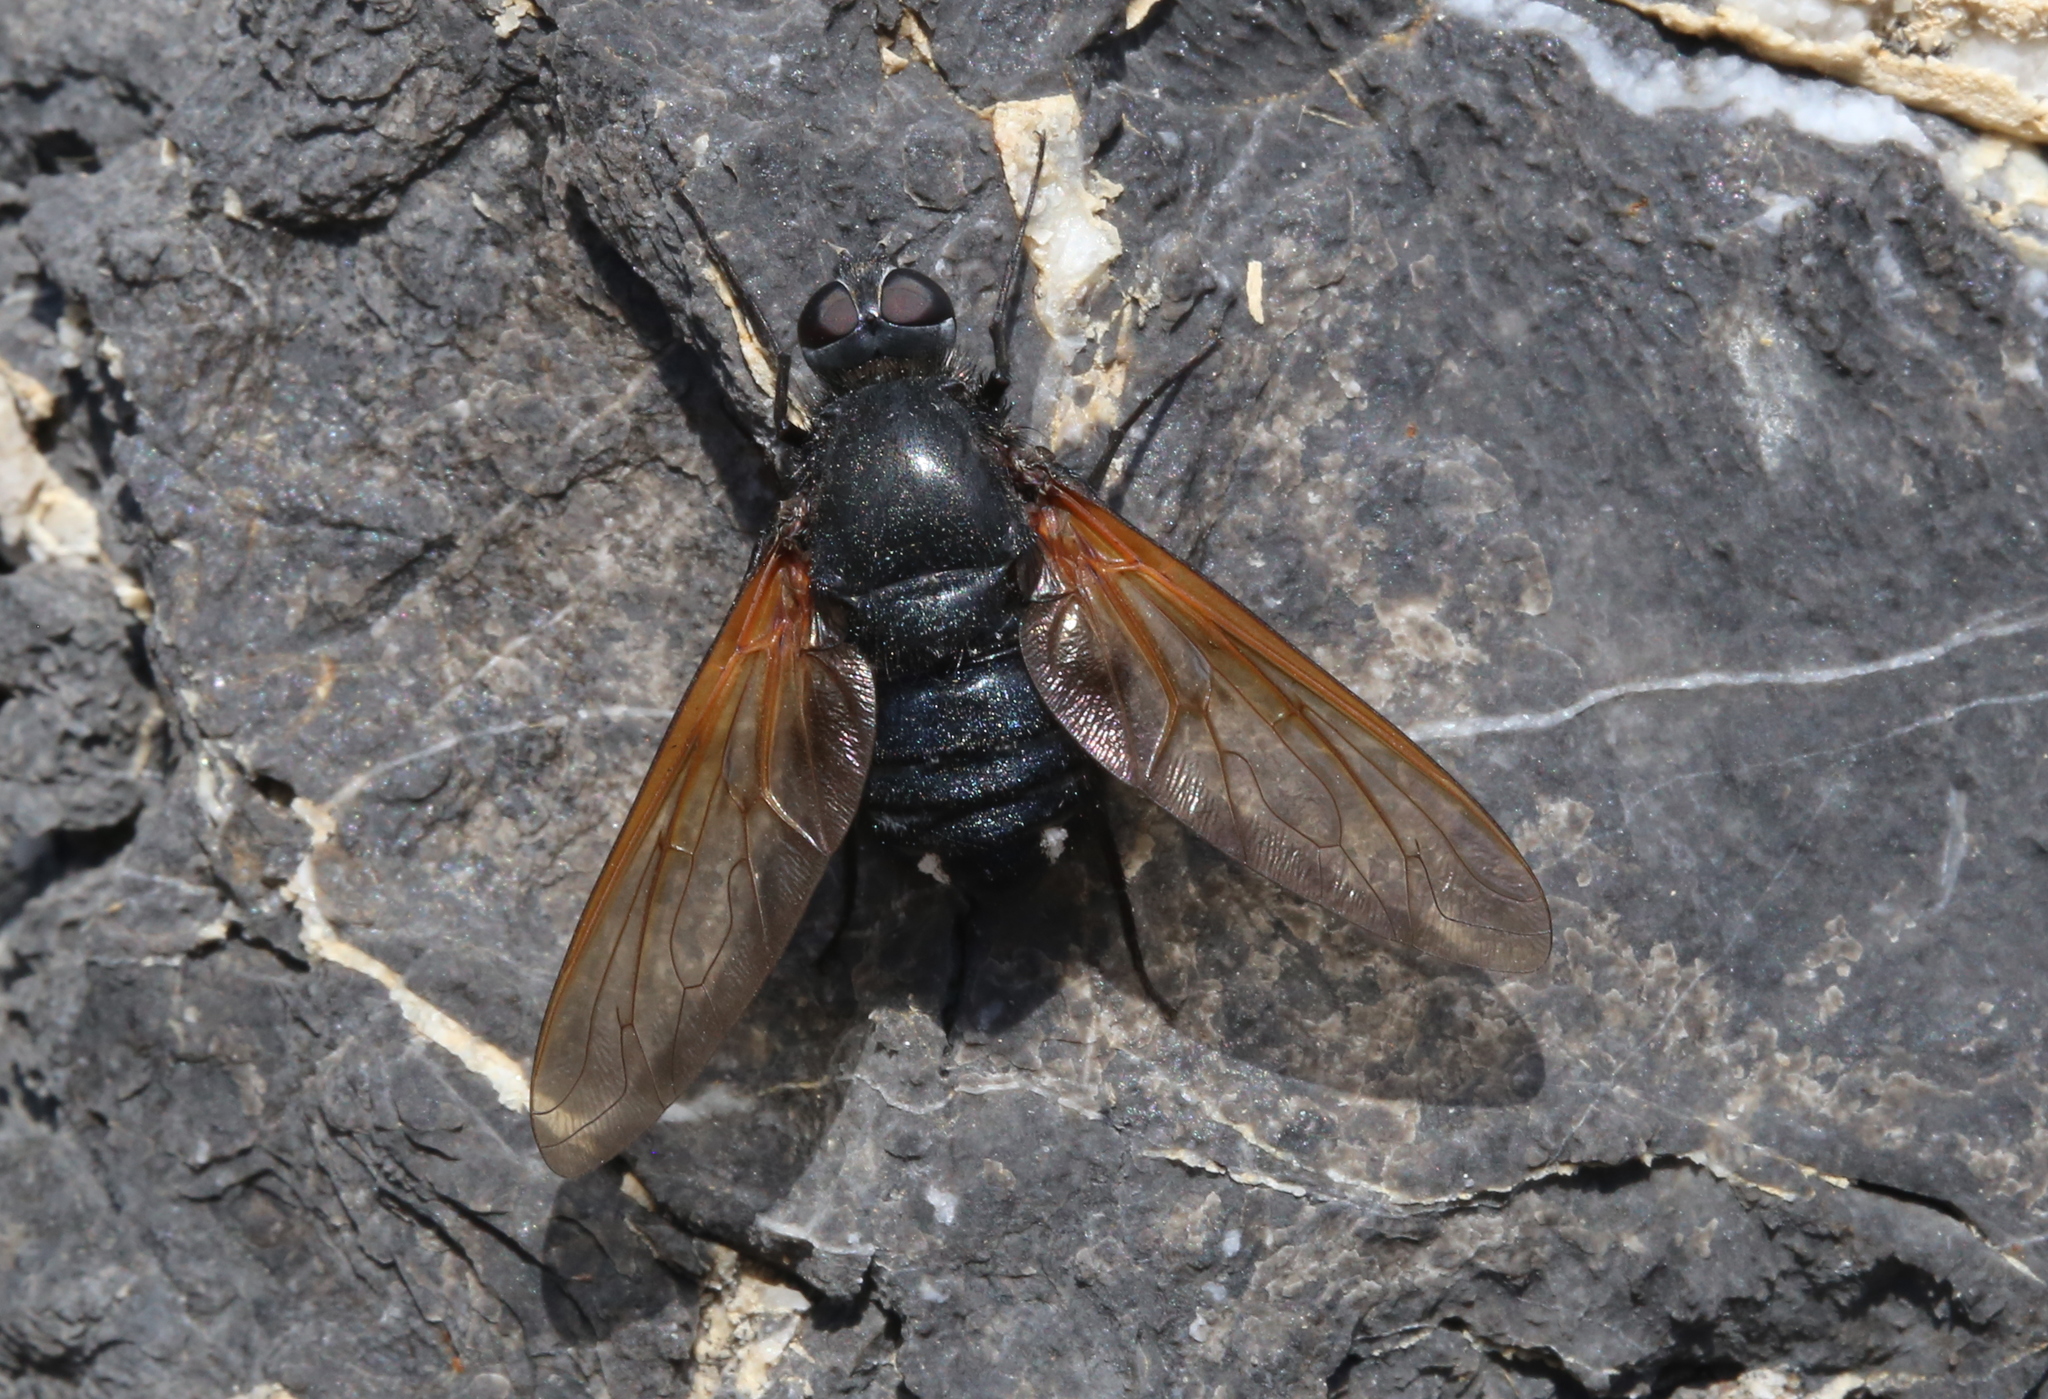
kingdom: Animalia
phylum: Arthropoda
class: Insecta
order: Diptera
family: Bombyliidae
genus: Satyramoeba
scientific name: Satyramoeba hetrusca
